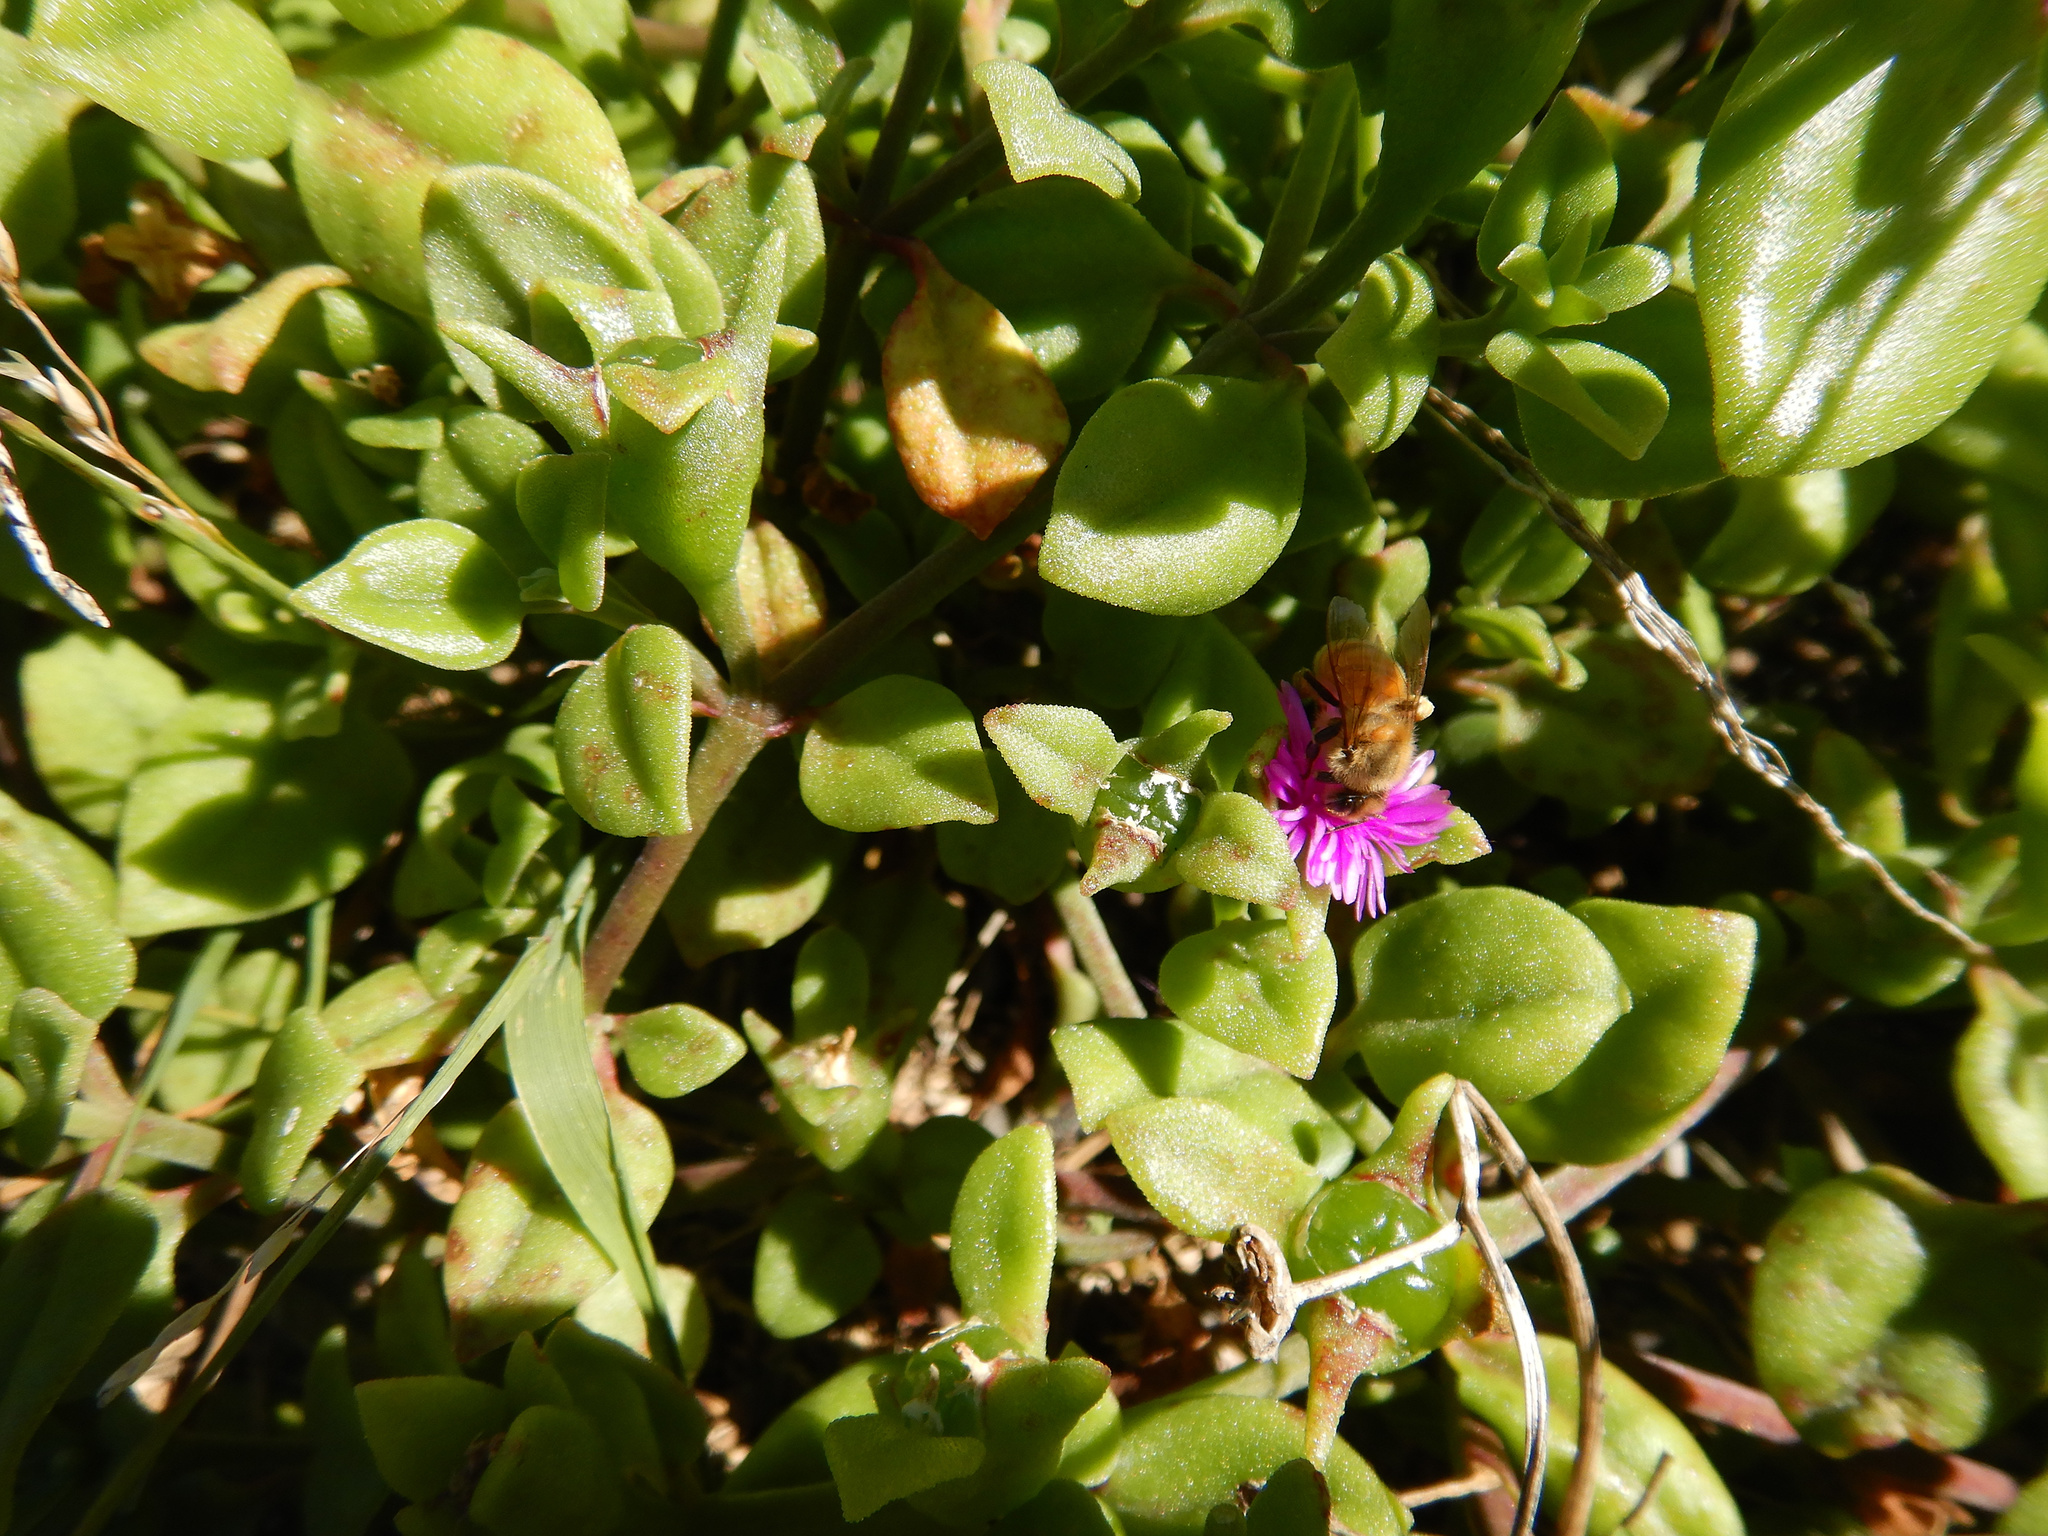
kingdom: Animalia
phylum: Arthropoda
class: Insecta
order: Hymenoptera
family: Apidae
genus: Apis
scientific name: Apis mellifera
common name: Honey bee
